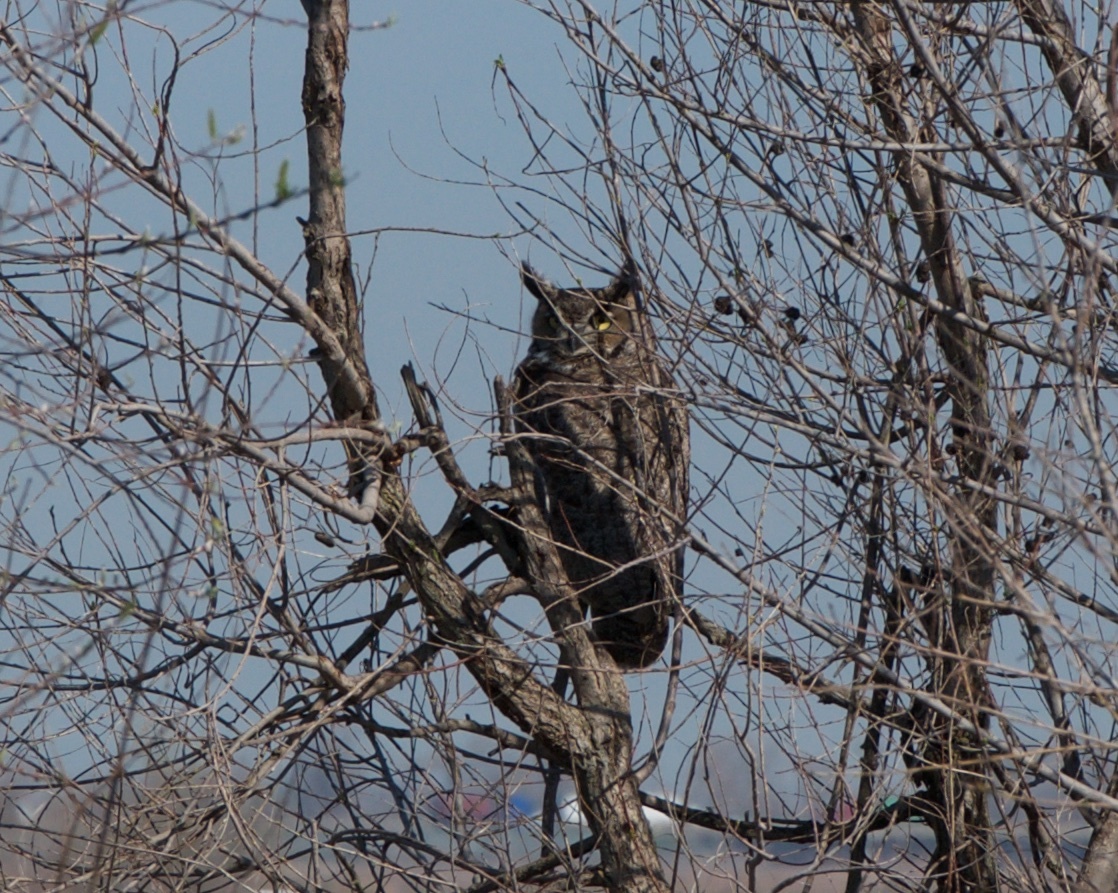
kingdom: Animalia
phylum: Chordata
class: Aves
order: Strigiformes
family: Strigidae
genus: Bubo
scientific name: Bubo virginianus
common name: Great horned owl
